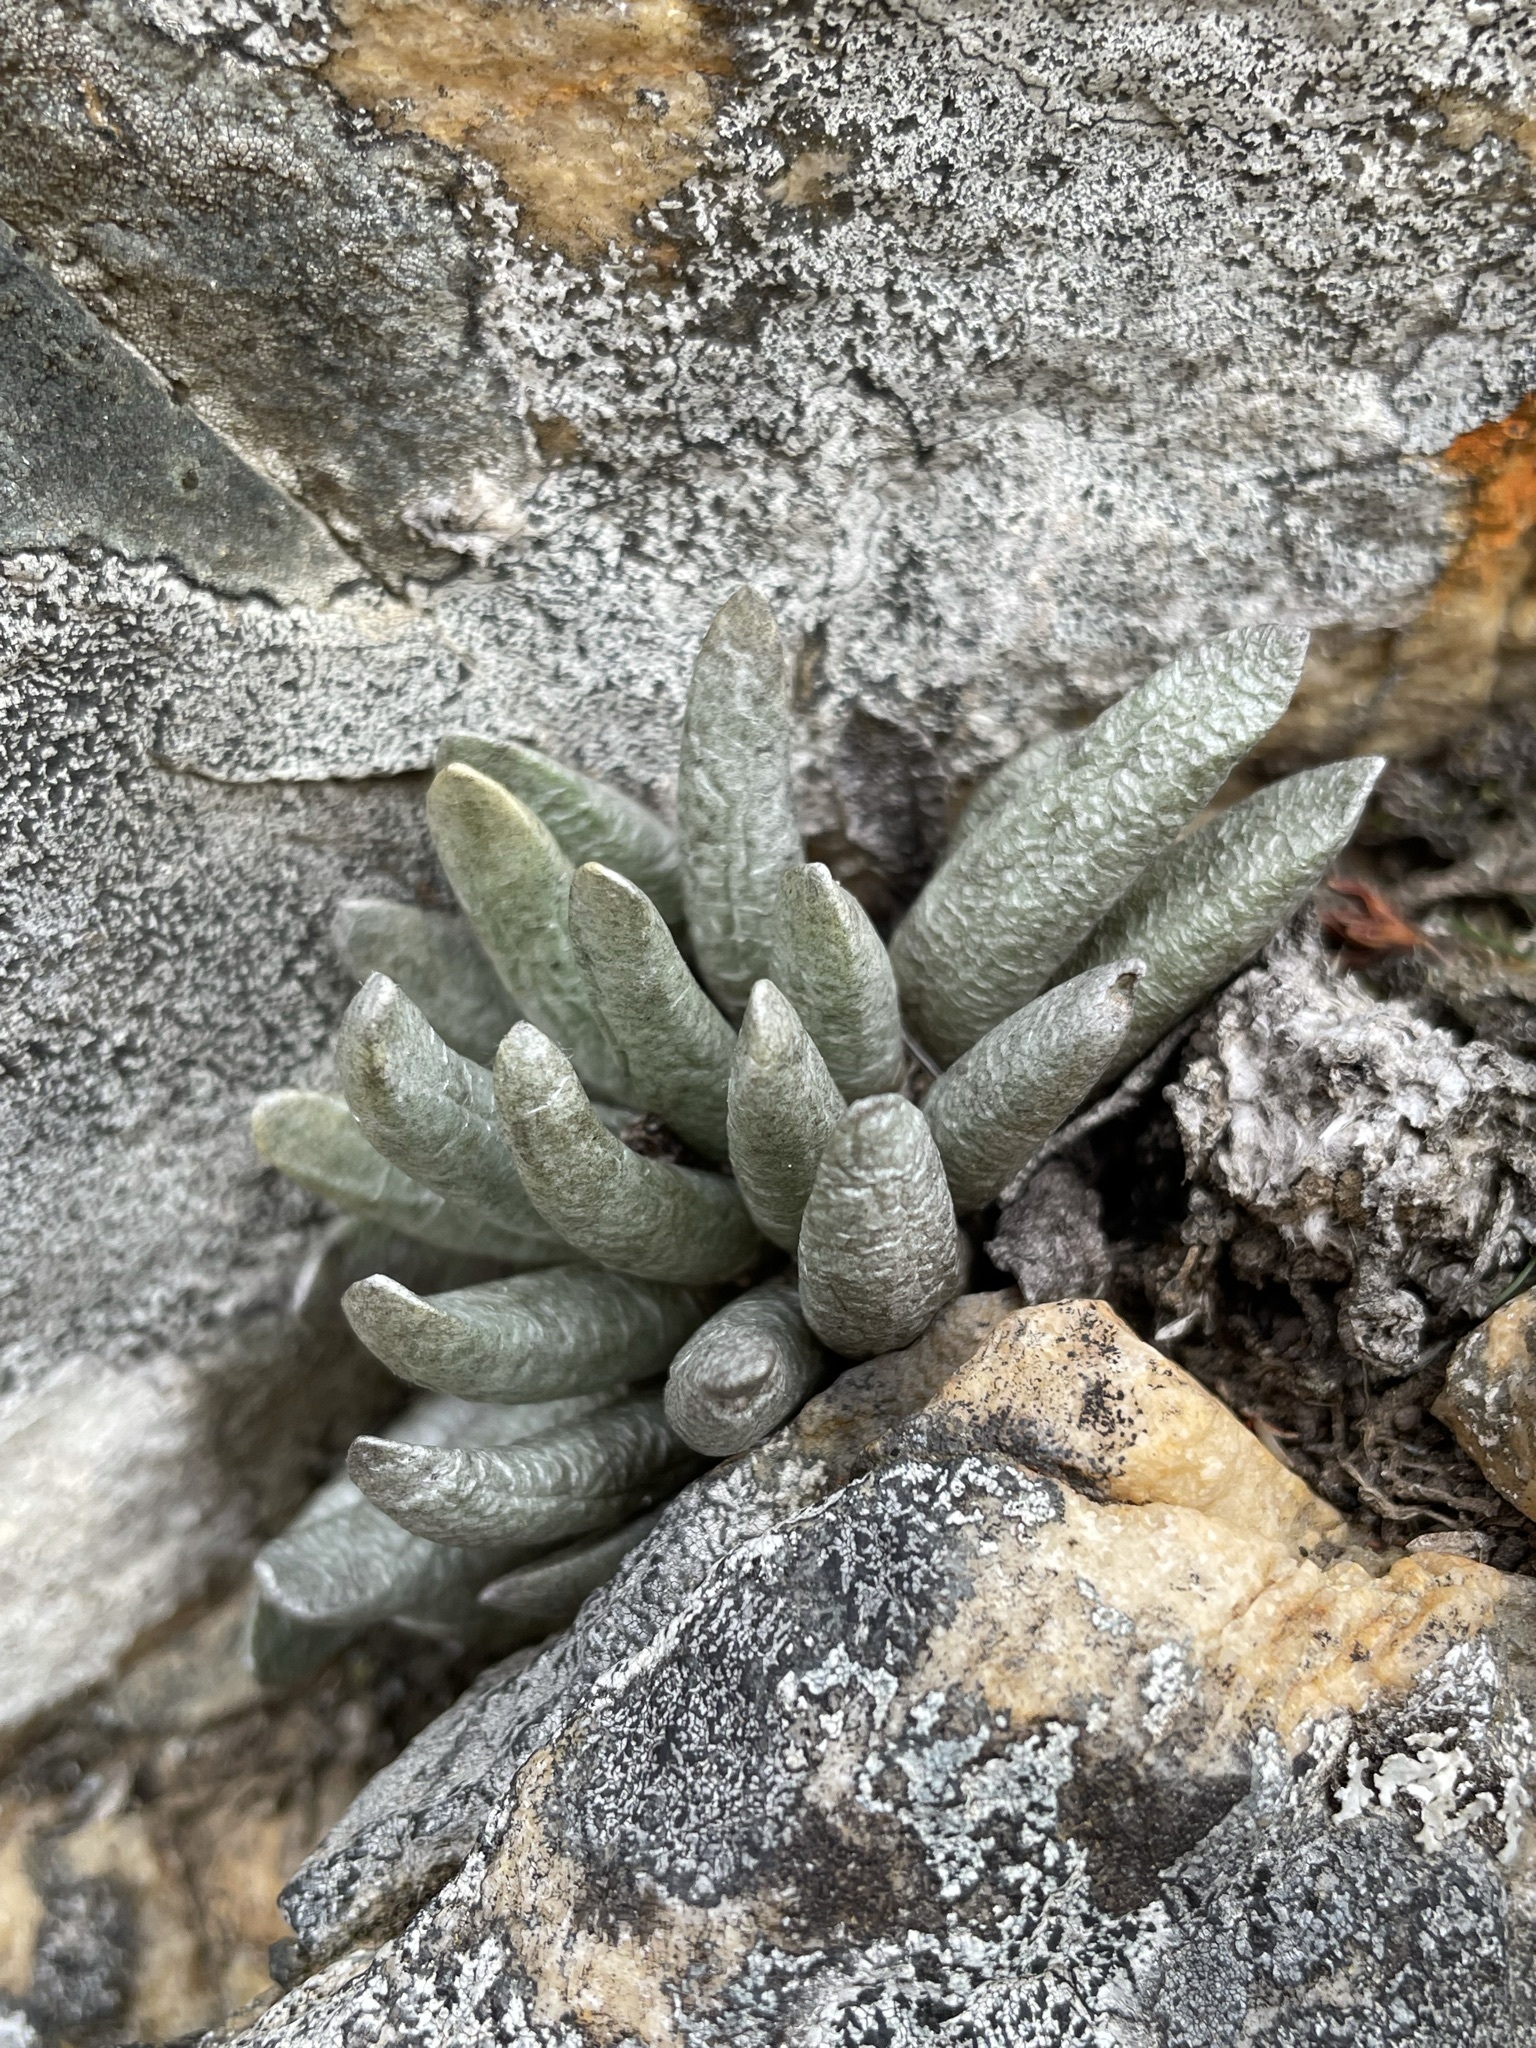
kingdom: Plantae
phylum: Tracheophyta
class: Magnoliopsida
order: Asterales
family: Asteraceae
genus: Caputia
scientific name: Caputia scaposa
